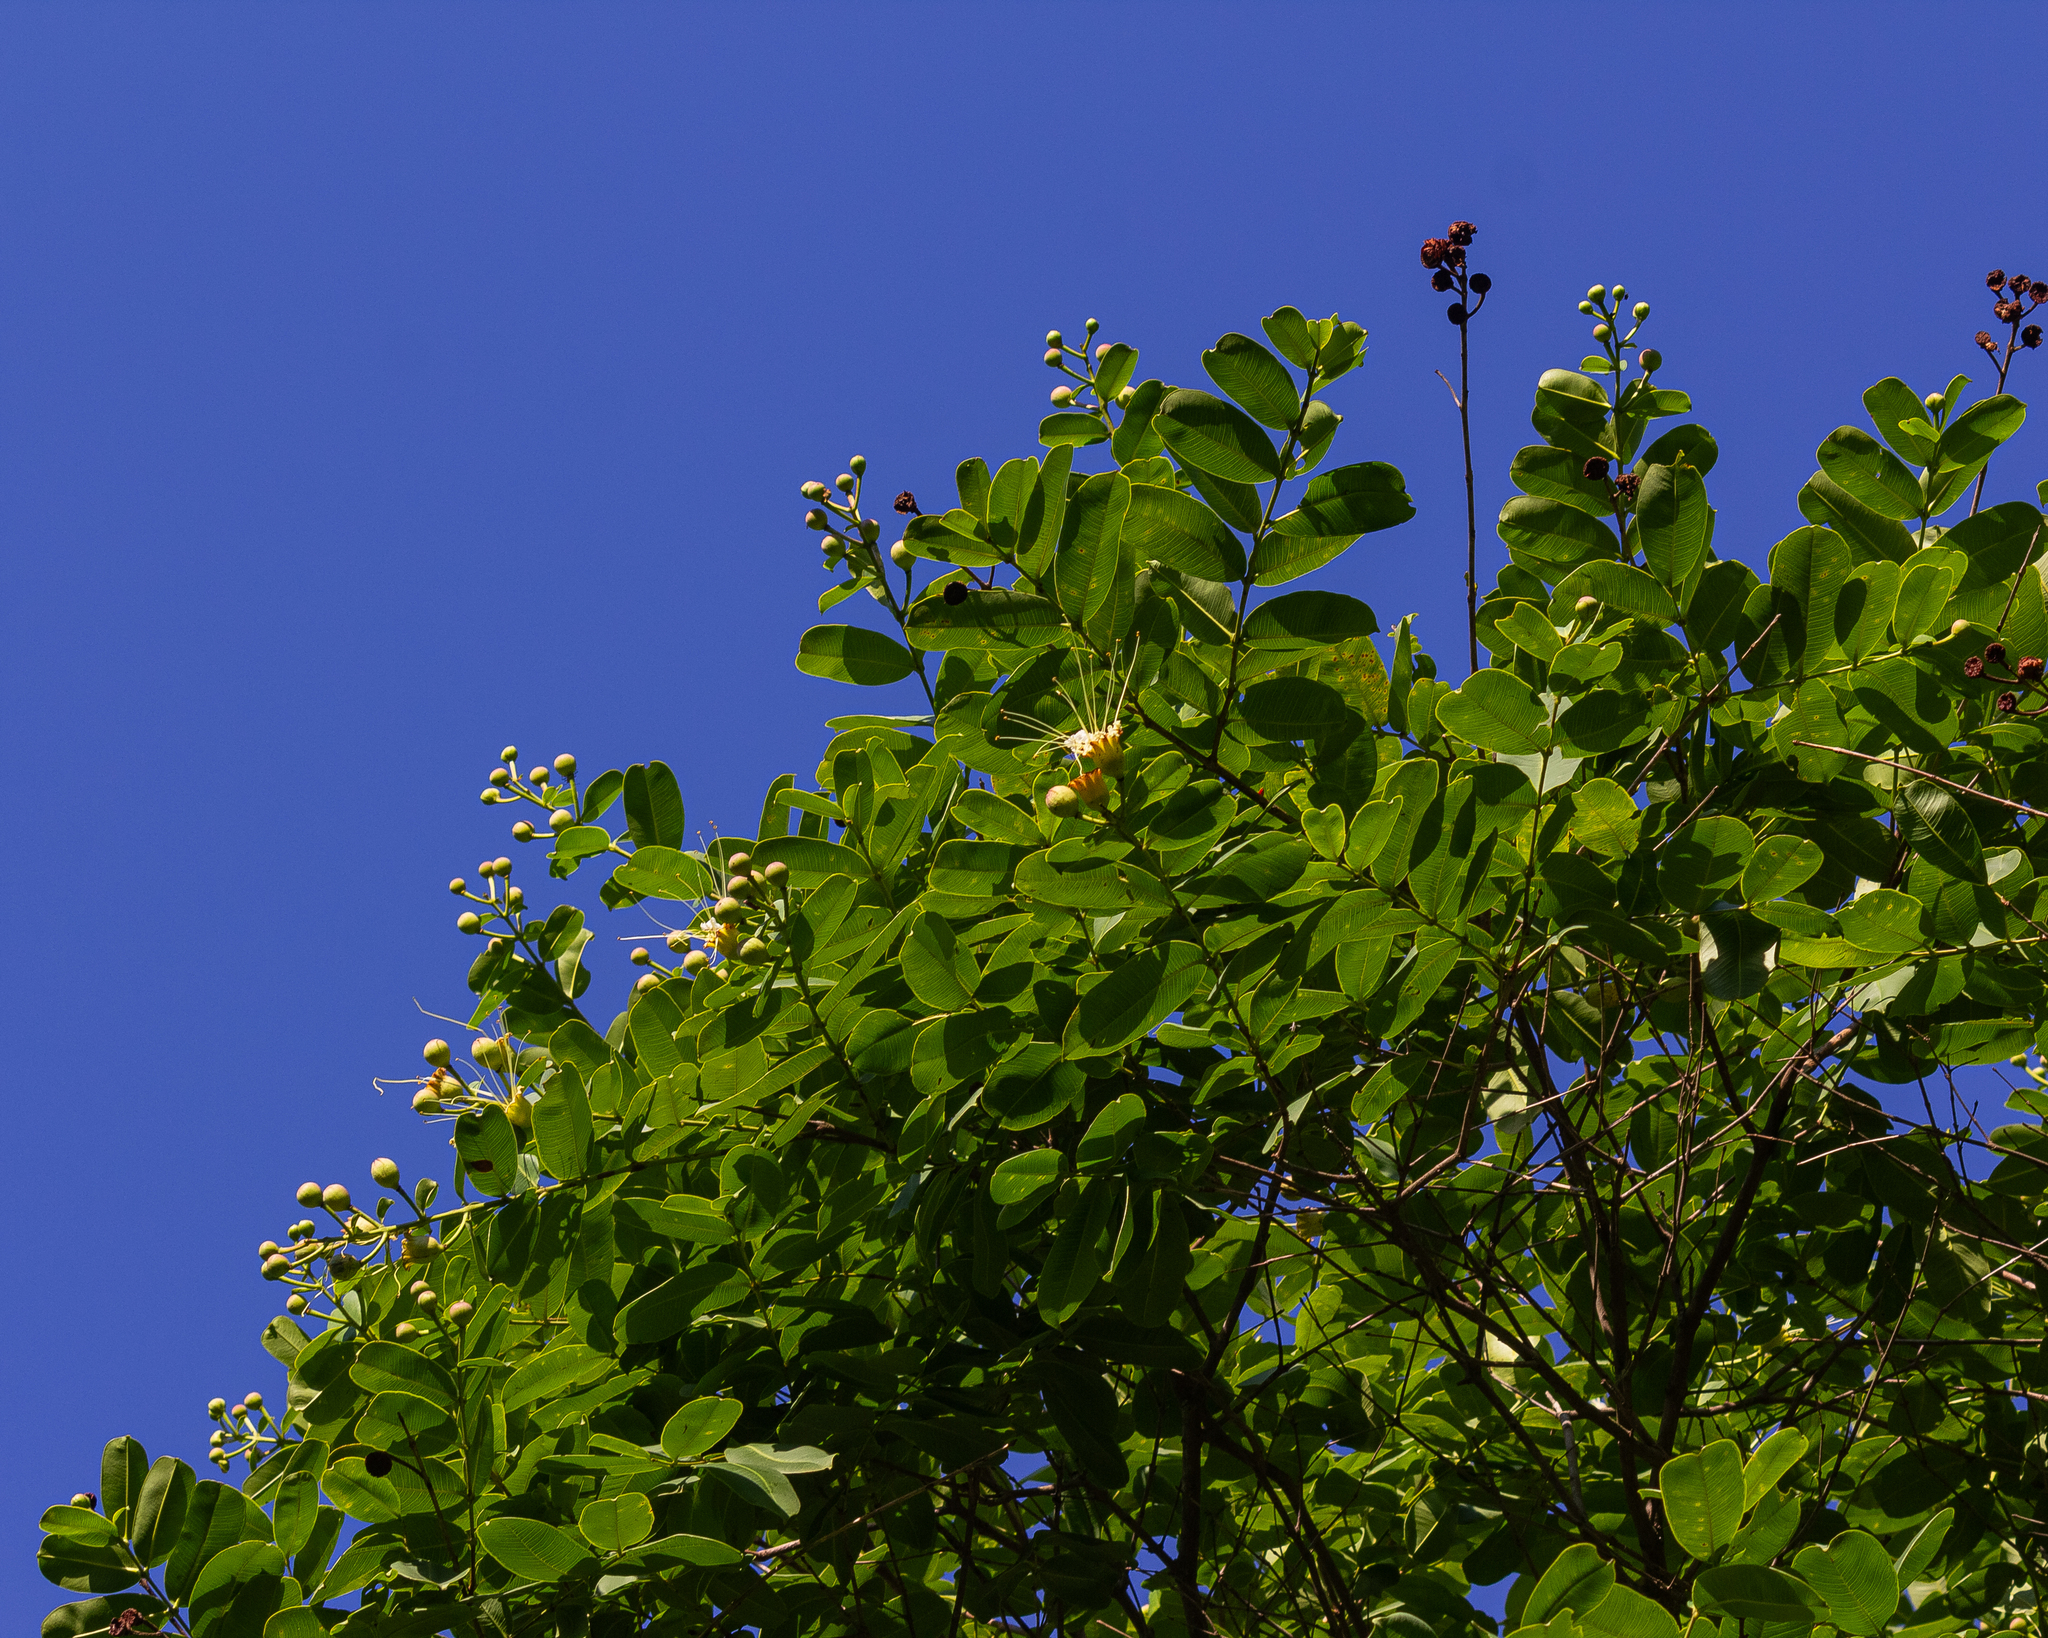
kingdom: Plantae
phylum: Tracheophyta
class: Magnoliopsida
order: Myrtales
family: Lythraceae
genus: Lafoensia
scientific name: Lafoensia pacari
